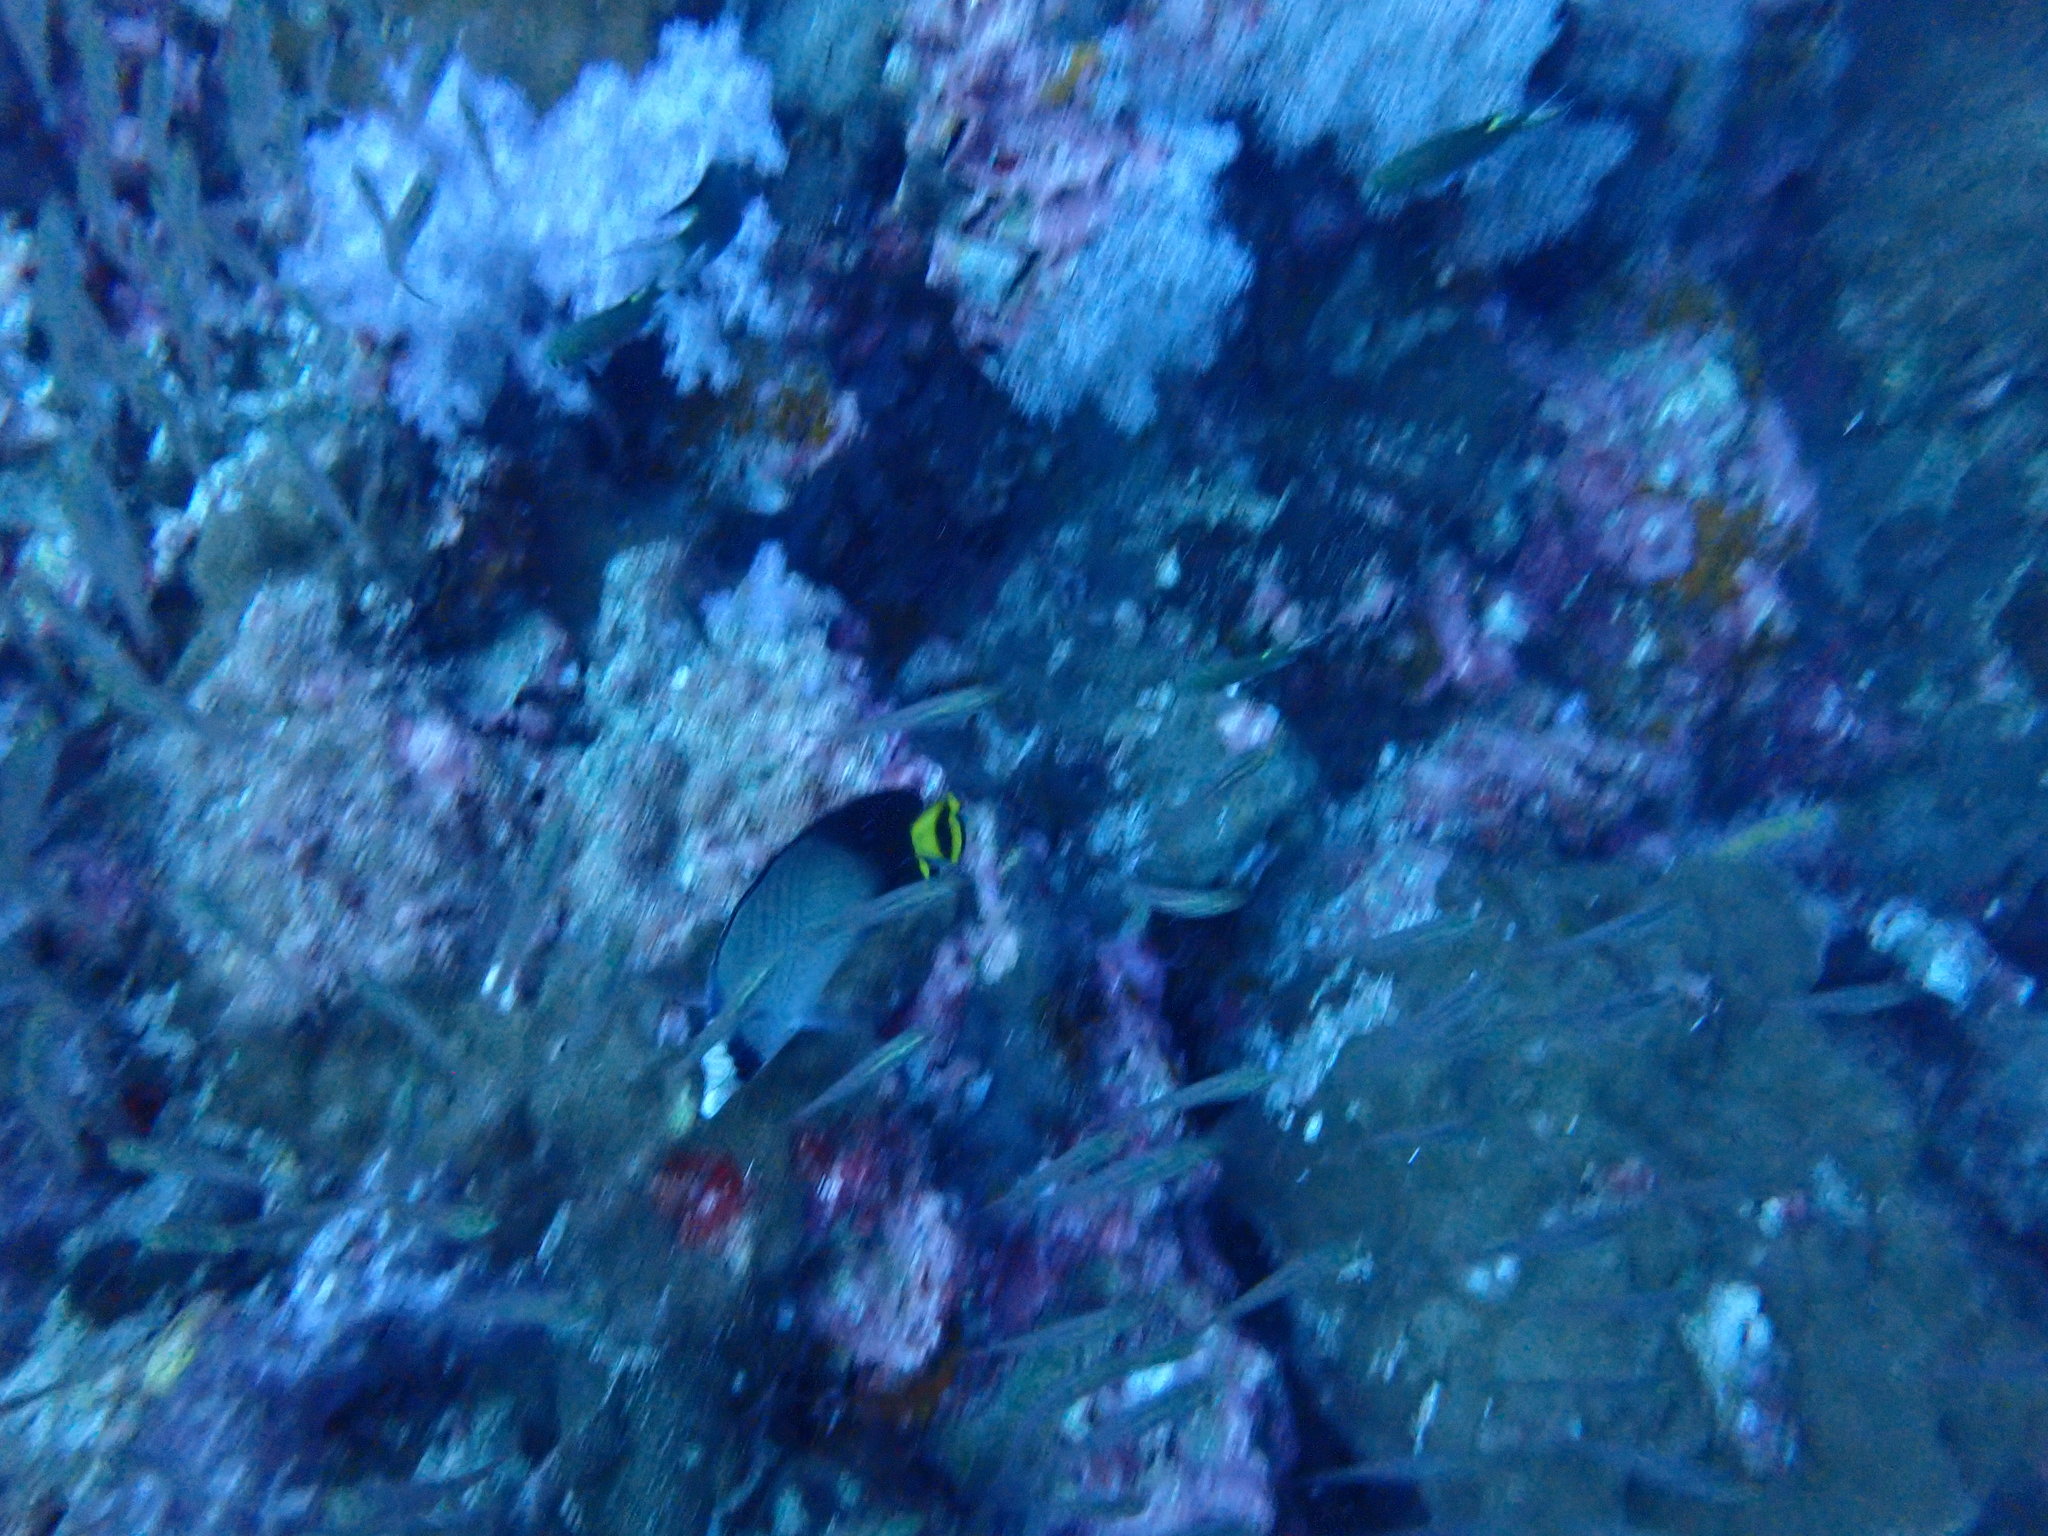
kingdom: Animalia
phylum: Chordata
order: Perciformes
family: Chaetodontidae
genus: Chaetodon
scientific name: Chaetodon decussatus
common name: Indian vagabond butterflyfish
